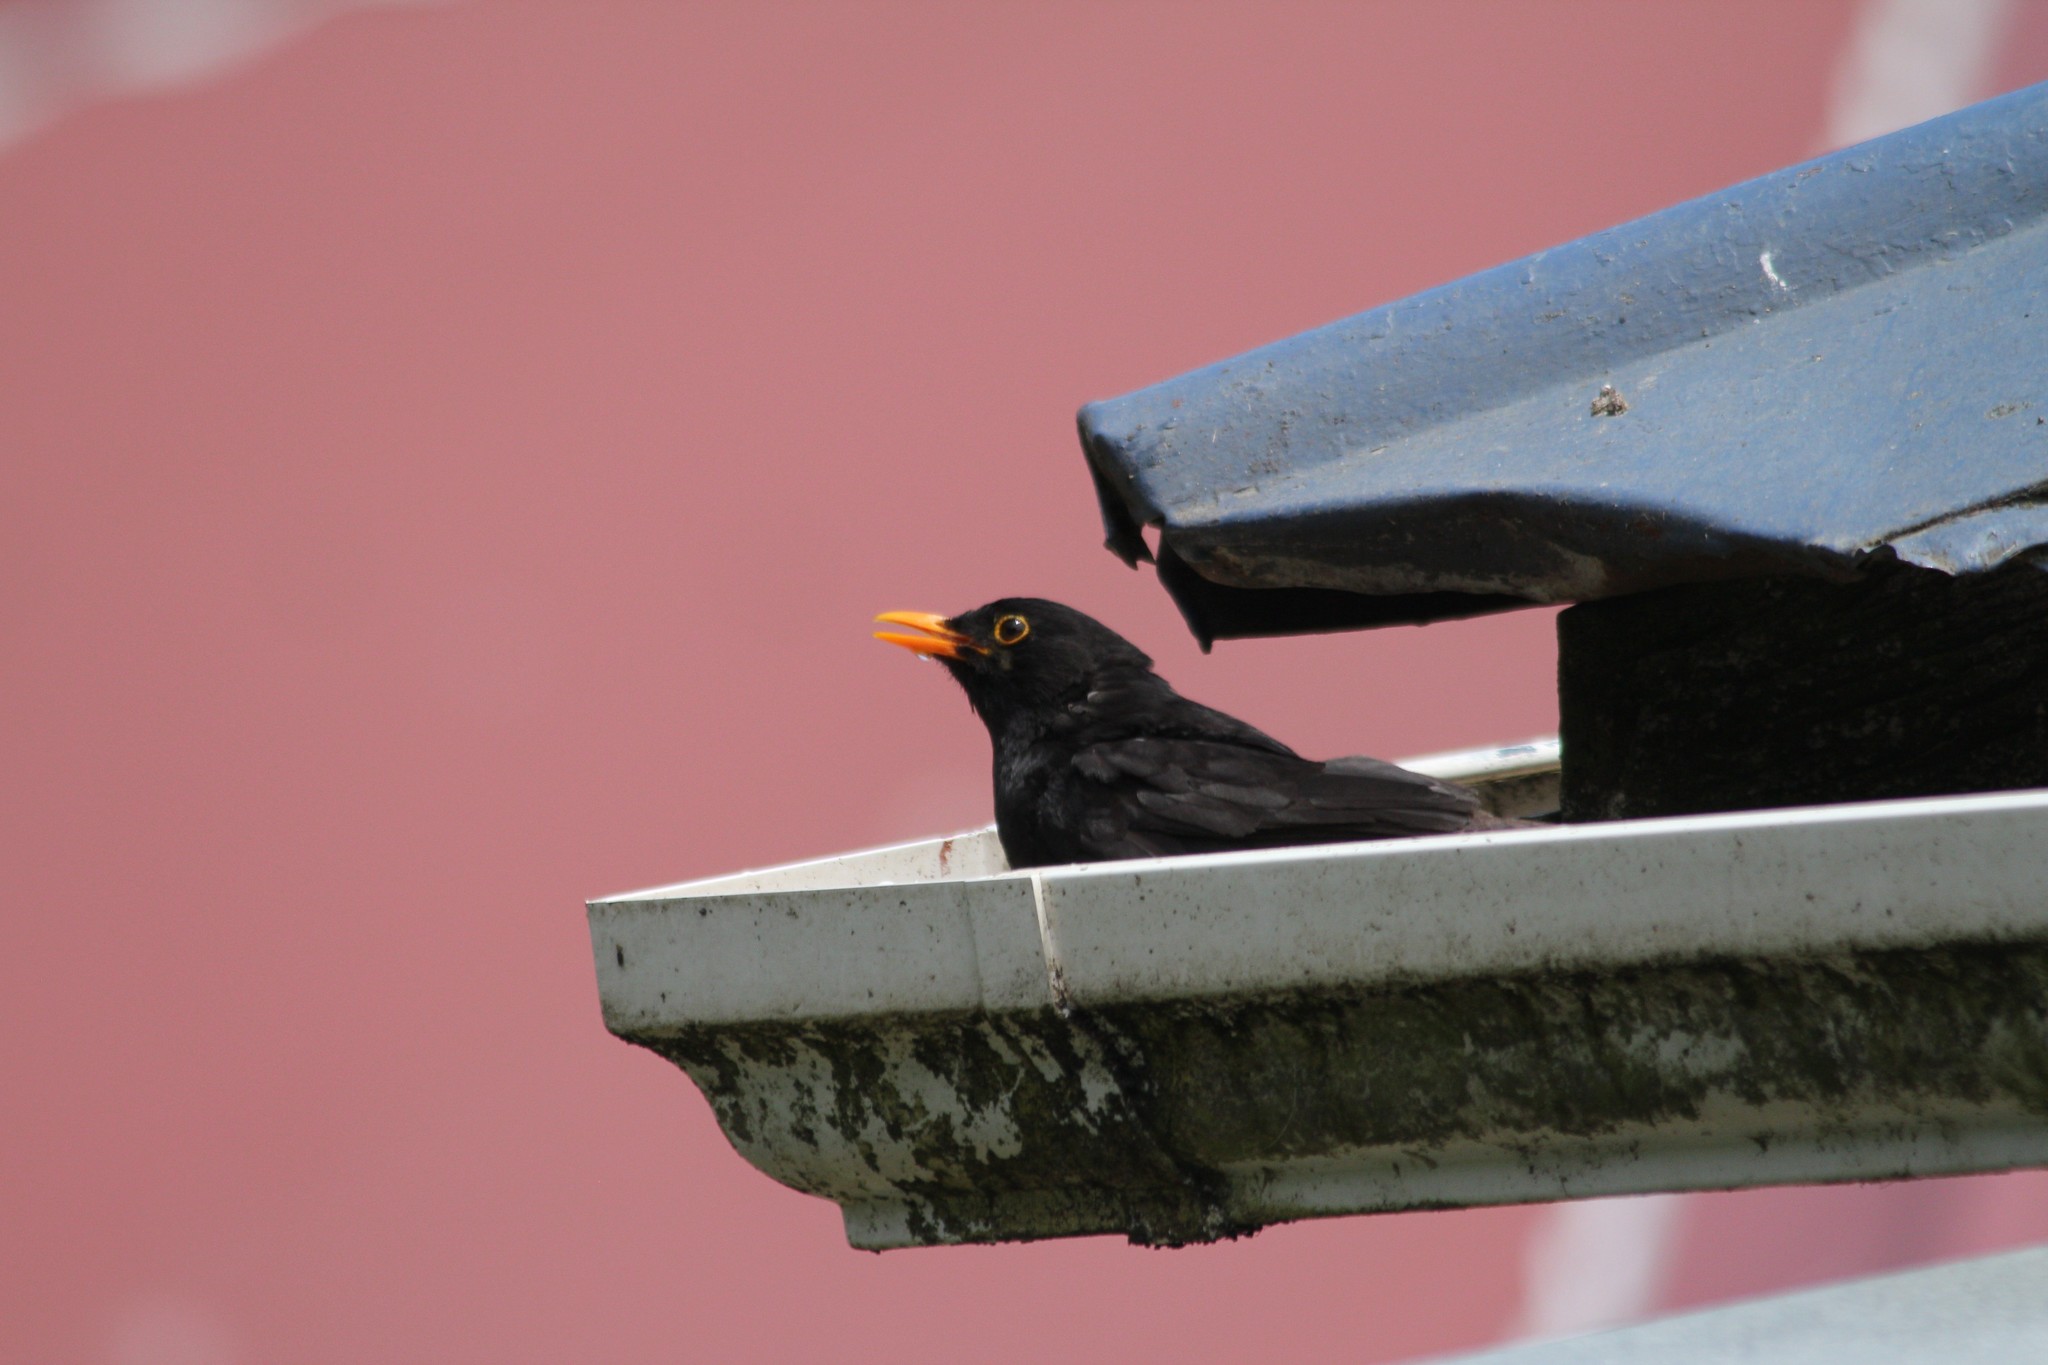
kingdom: Animalia
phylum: Chordata
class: Aves
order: Passeriformes
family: Turdidae
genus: Turdus
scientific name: Turdus merula
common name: Common blackbird
